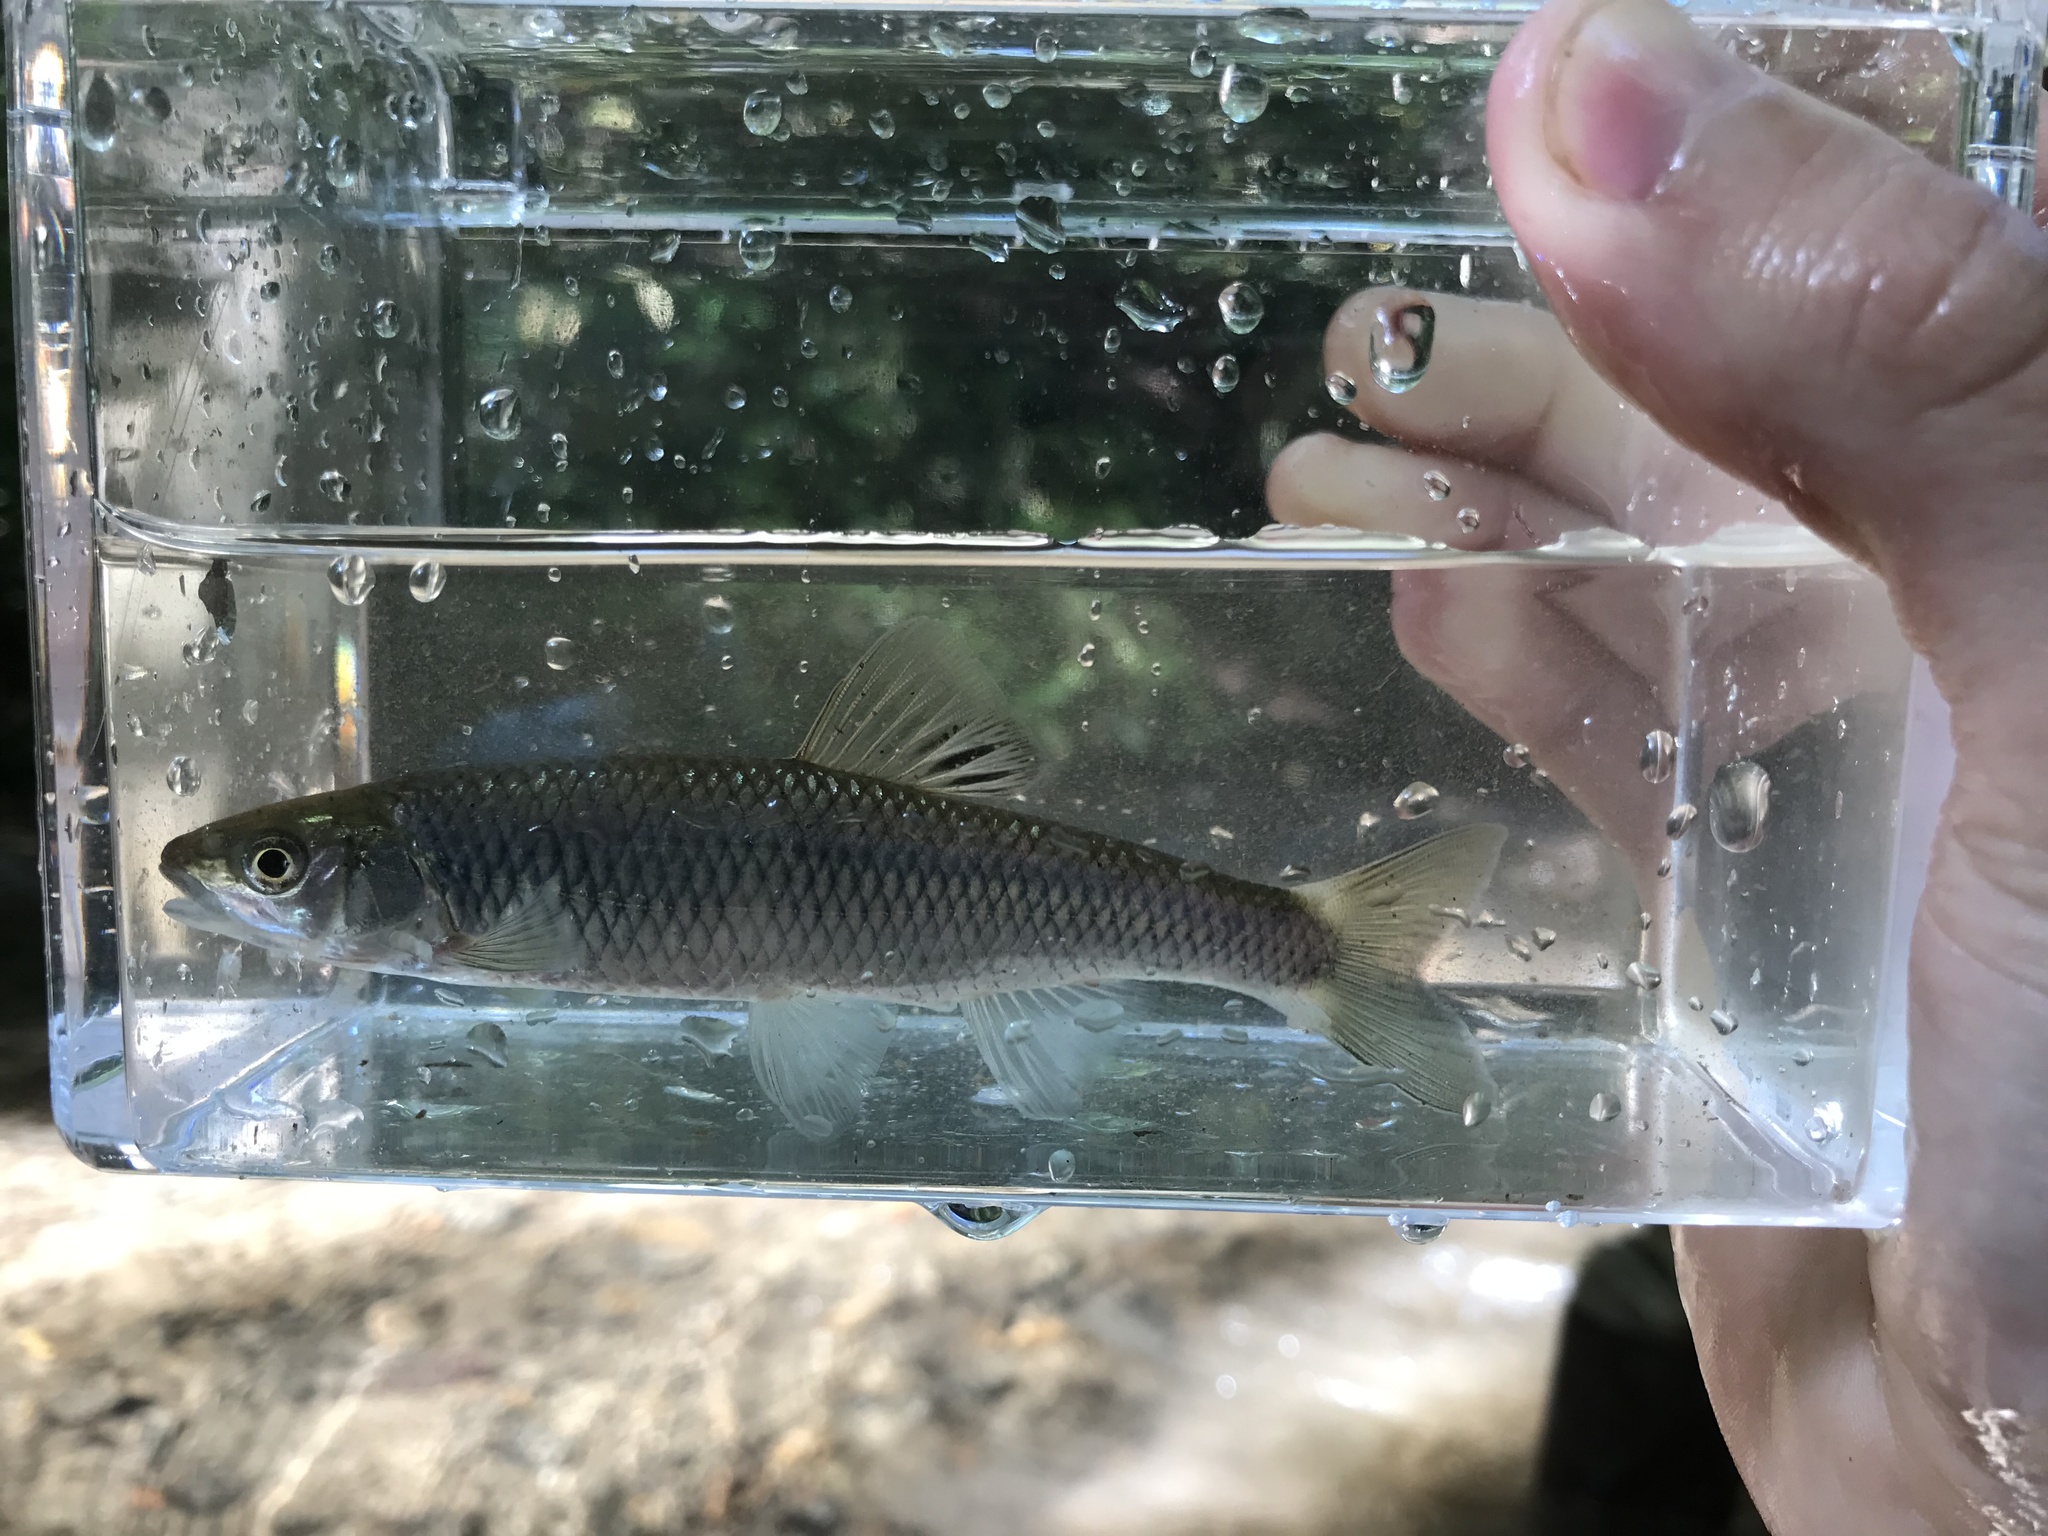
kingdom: Animalia
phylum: Chordata
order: Cypriniformes
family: Cyprinidae
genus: Cyprinella
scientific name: Cyprinella galactura
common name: Whitetail shiner
